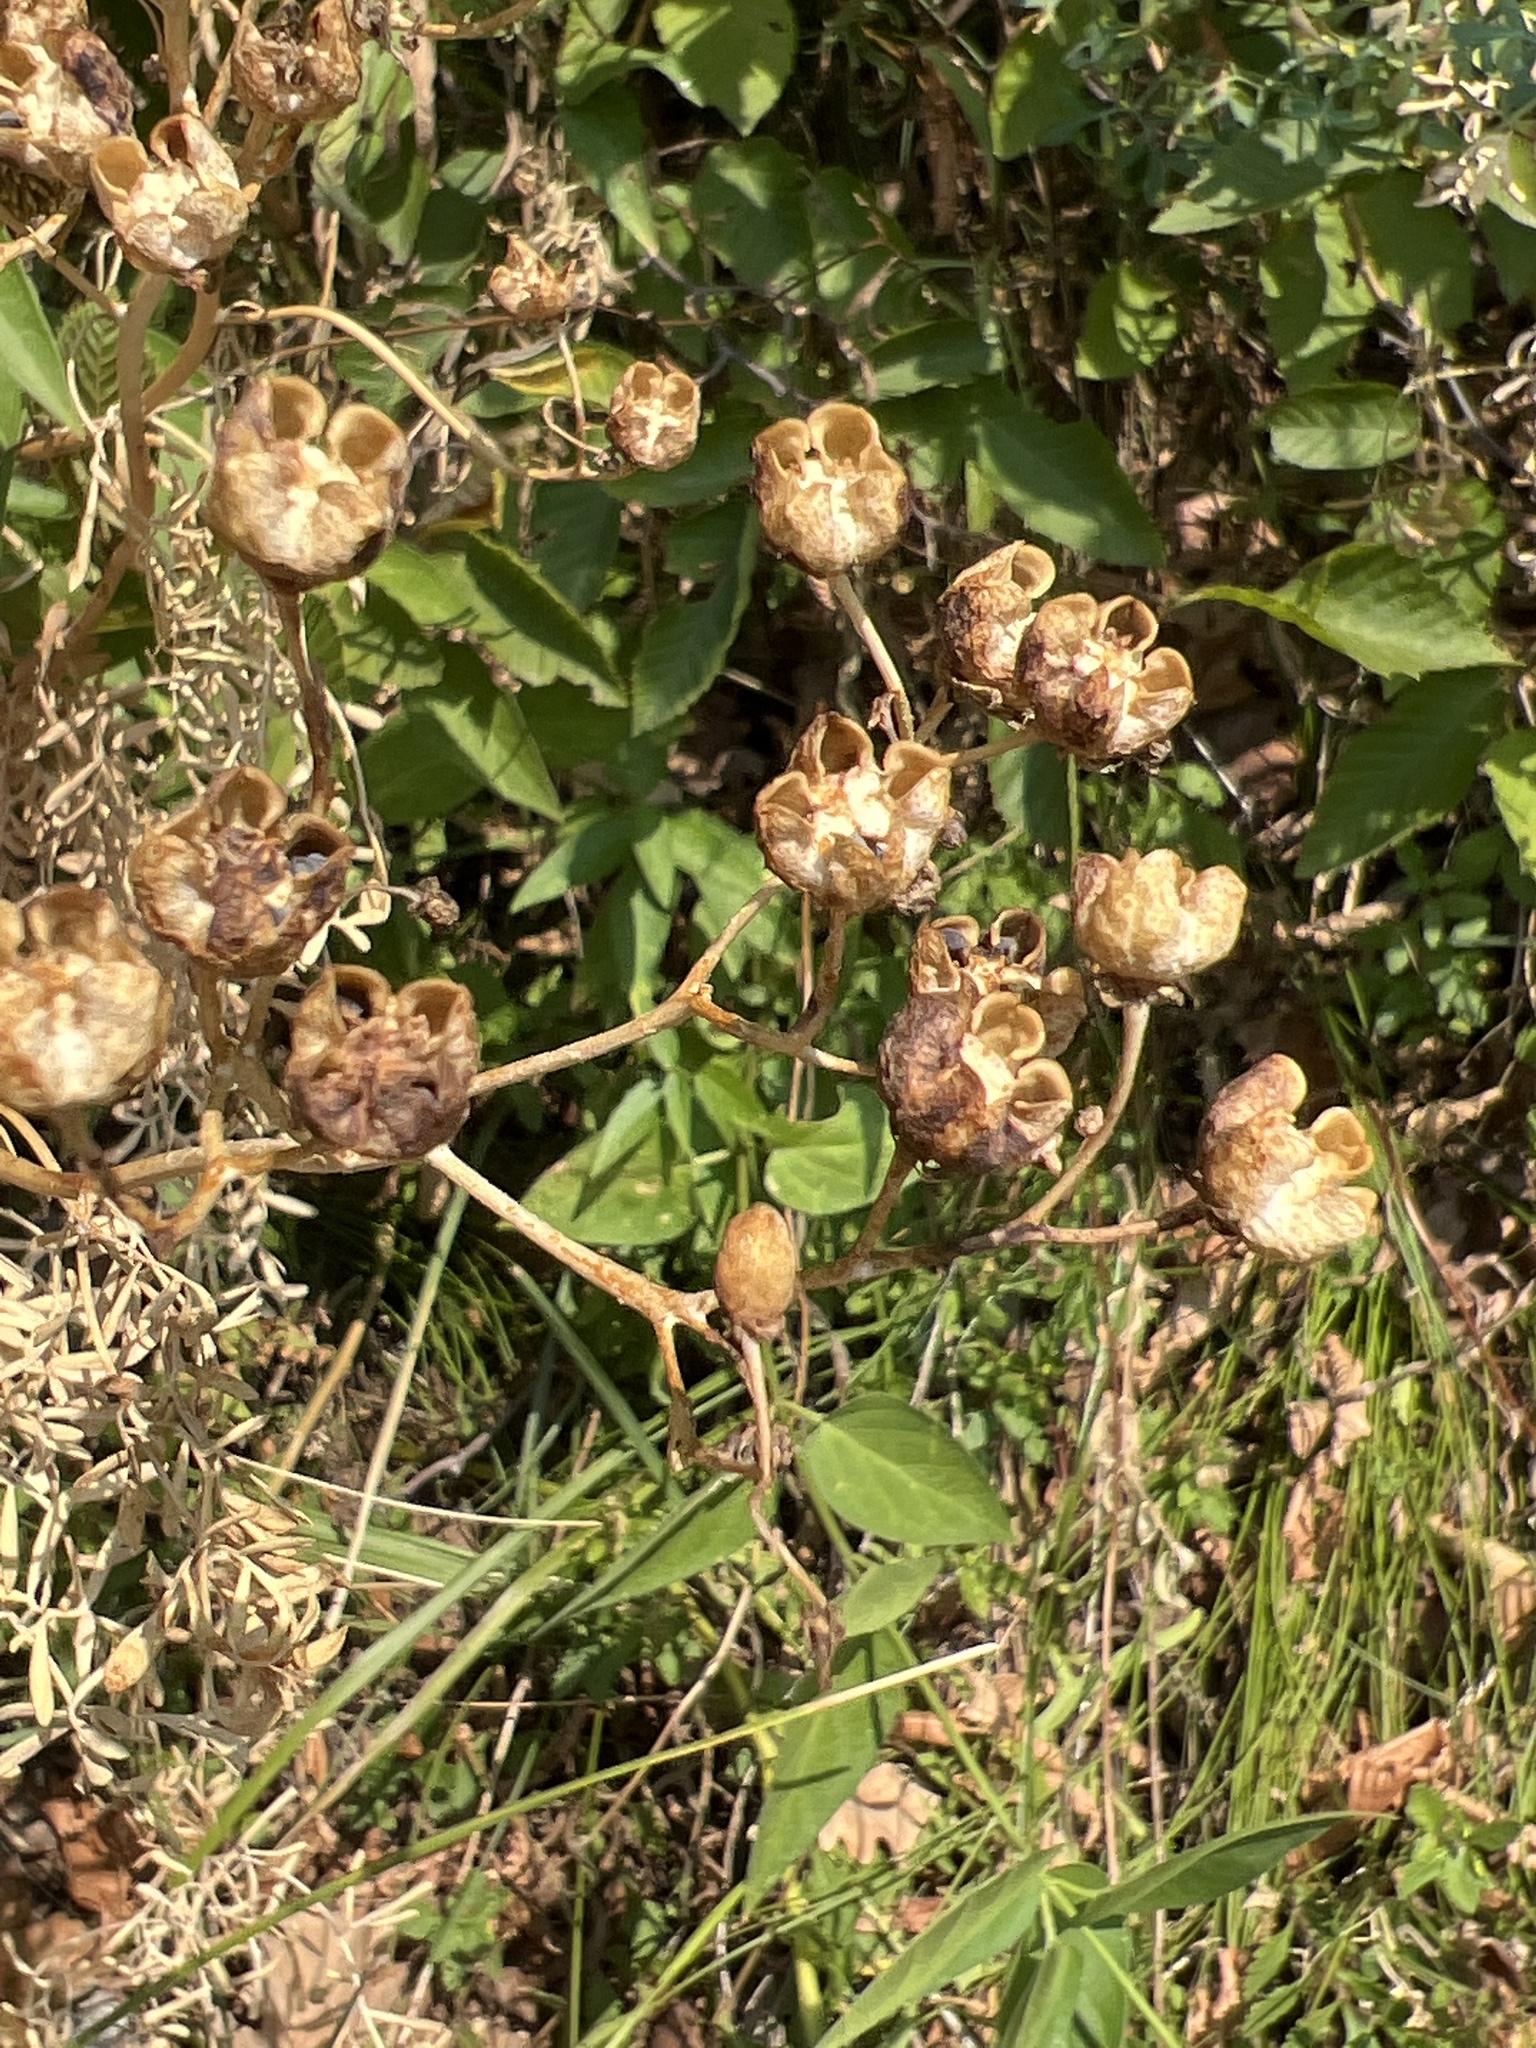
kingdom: Plantae
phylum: Tracheophyta
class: Magnoliopsida
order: Sapindales
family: Rutaceae
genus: Ruta
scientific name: Ruta graveolens
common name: Common rue
